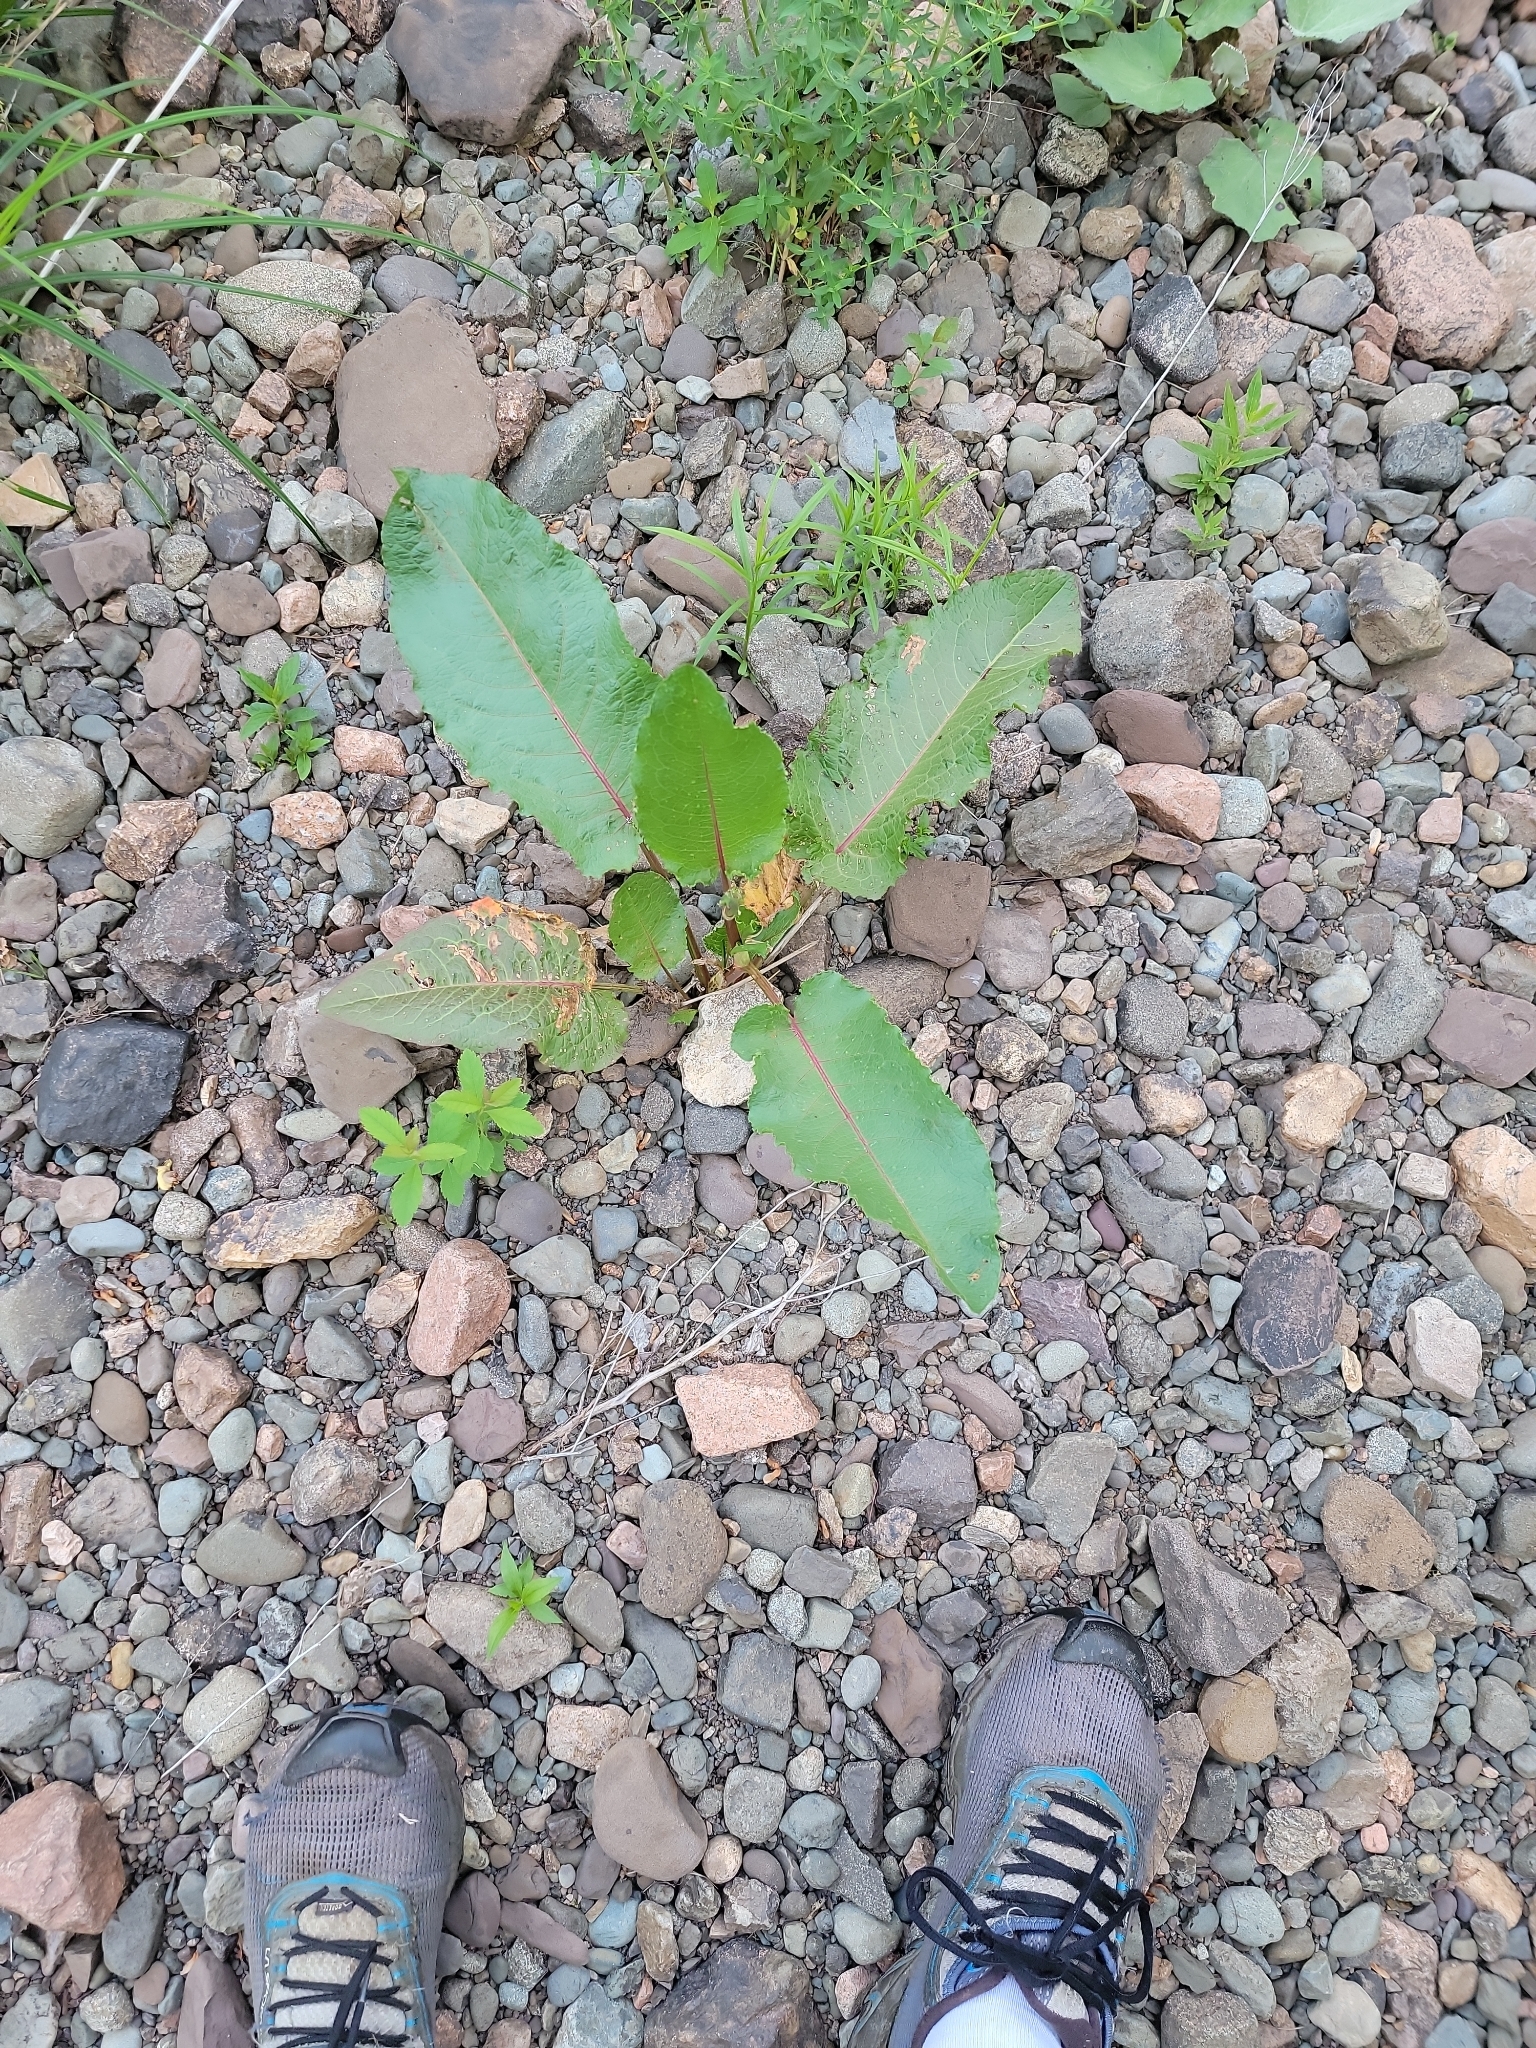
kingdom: Plantae
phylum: Tracheophyta
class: Magnoliopsida
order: Caryophyllales
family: Polygonaceae
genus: Rumex
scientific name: Rumex obtusifolius
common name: Bitter dock
